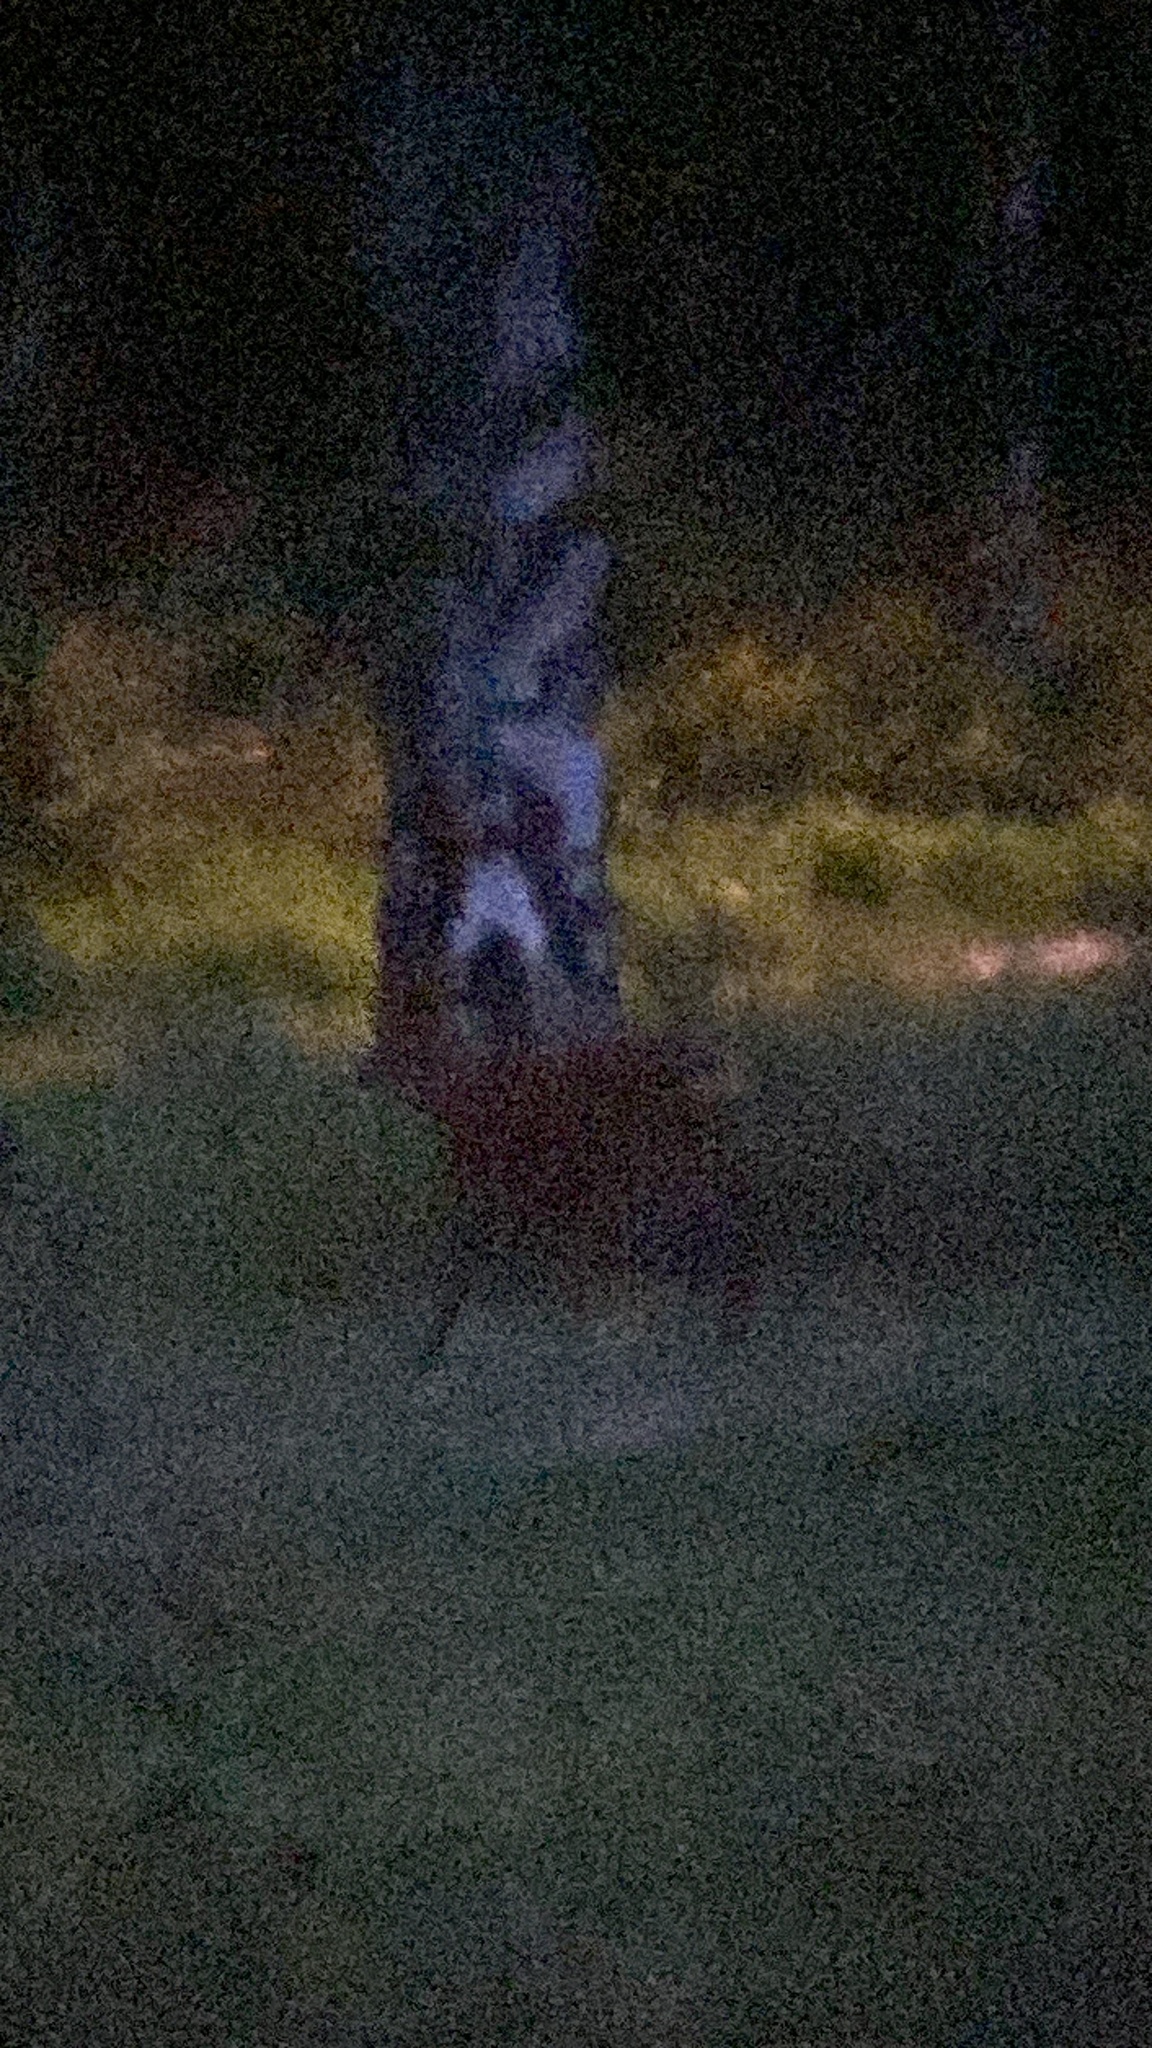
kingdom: Animalia
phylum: Chordata
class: Mammalia
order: Artiodactyla
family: Cervidae
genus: Capreolus
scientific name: Capreolus capreolus
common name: Western roe deer
